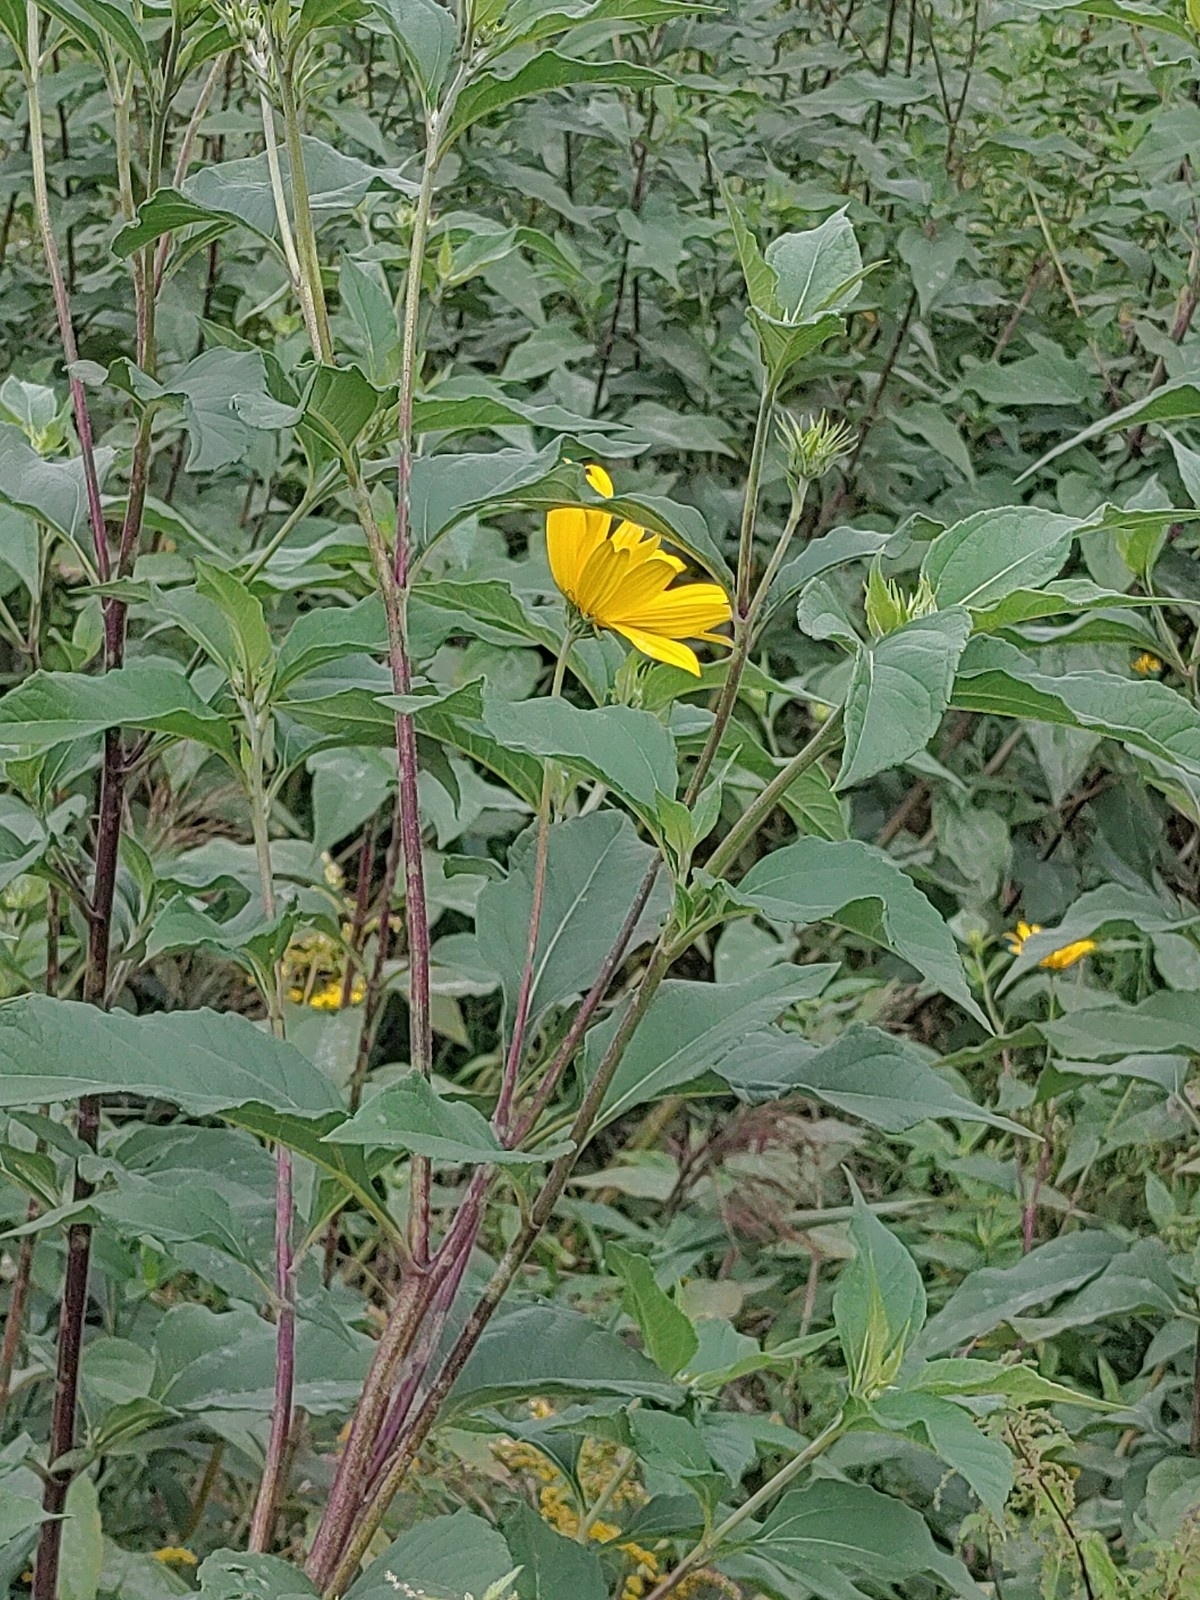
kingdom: Plantae
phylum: Tracheophyta
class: Magnoliopsida
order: Asterales
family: Asteraceae
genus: Helianthus
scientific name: Helianthus tuberosus
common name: Jerusalem artichoke
